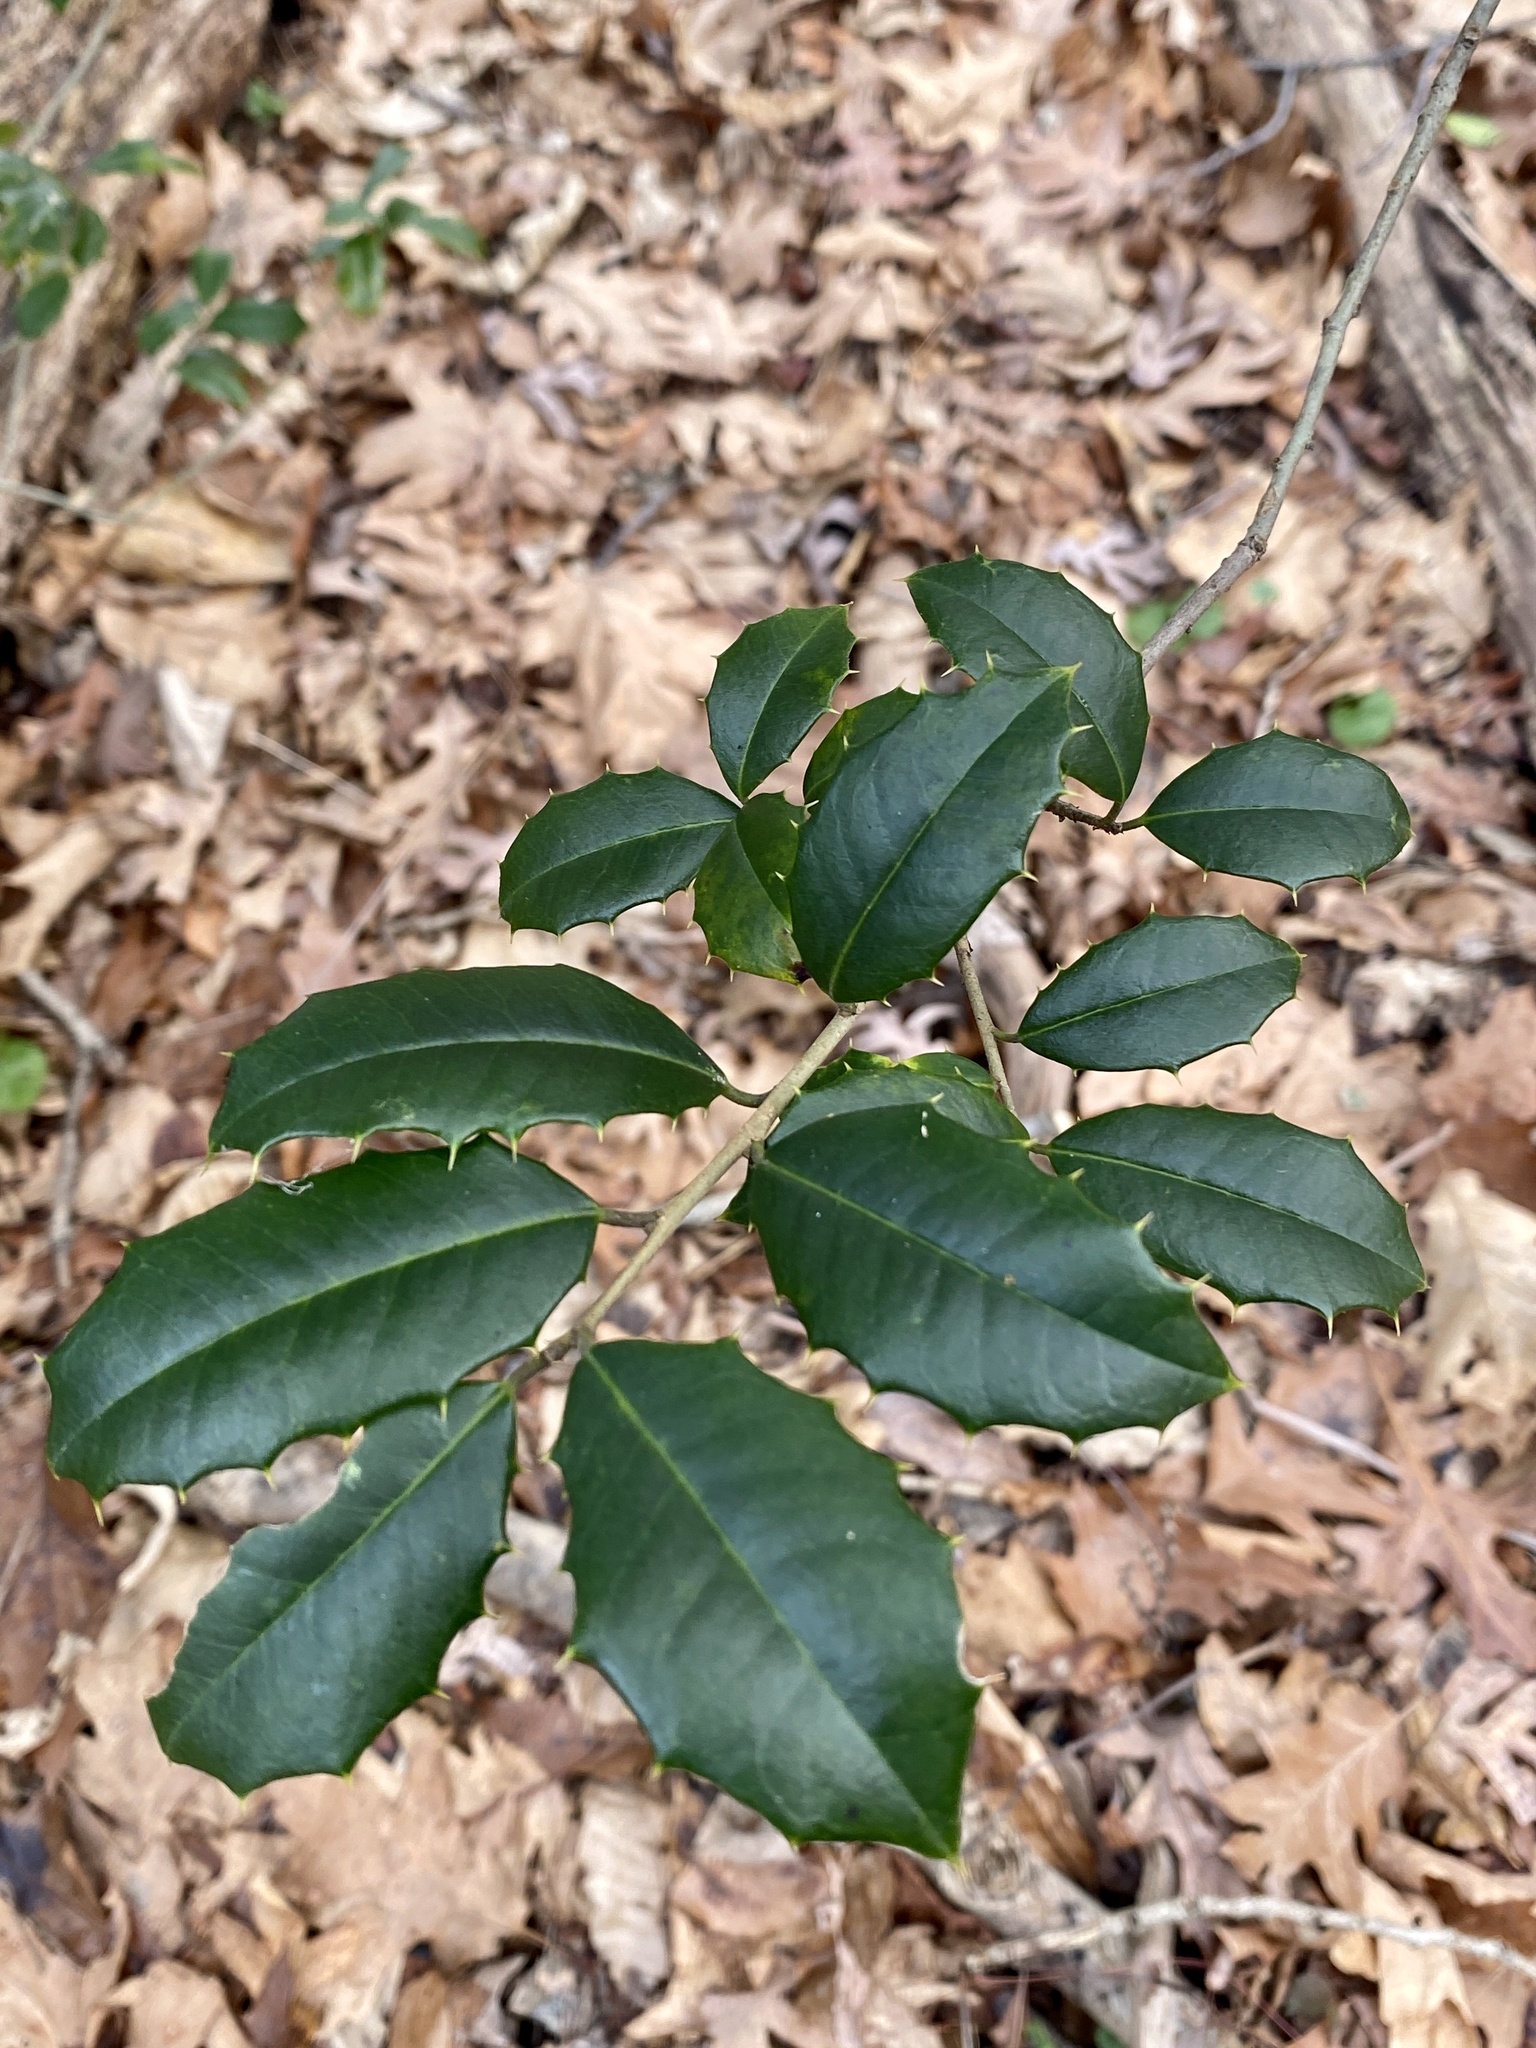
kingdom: Plantae
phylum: Tracheophyta
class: Magnoliopsida
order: Aquifoliales
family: Aquifoliaceae
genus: Ilex
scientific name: Ilex opaca
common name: American holly
